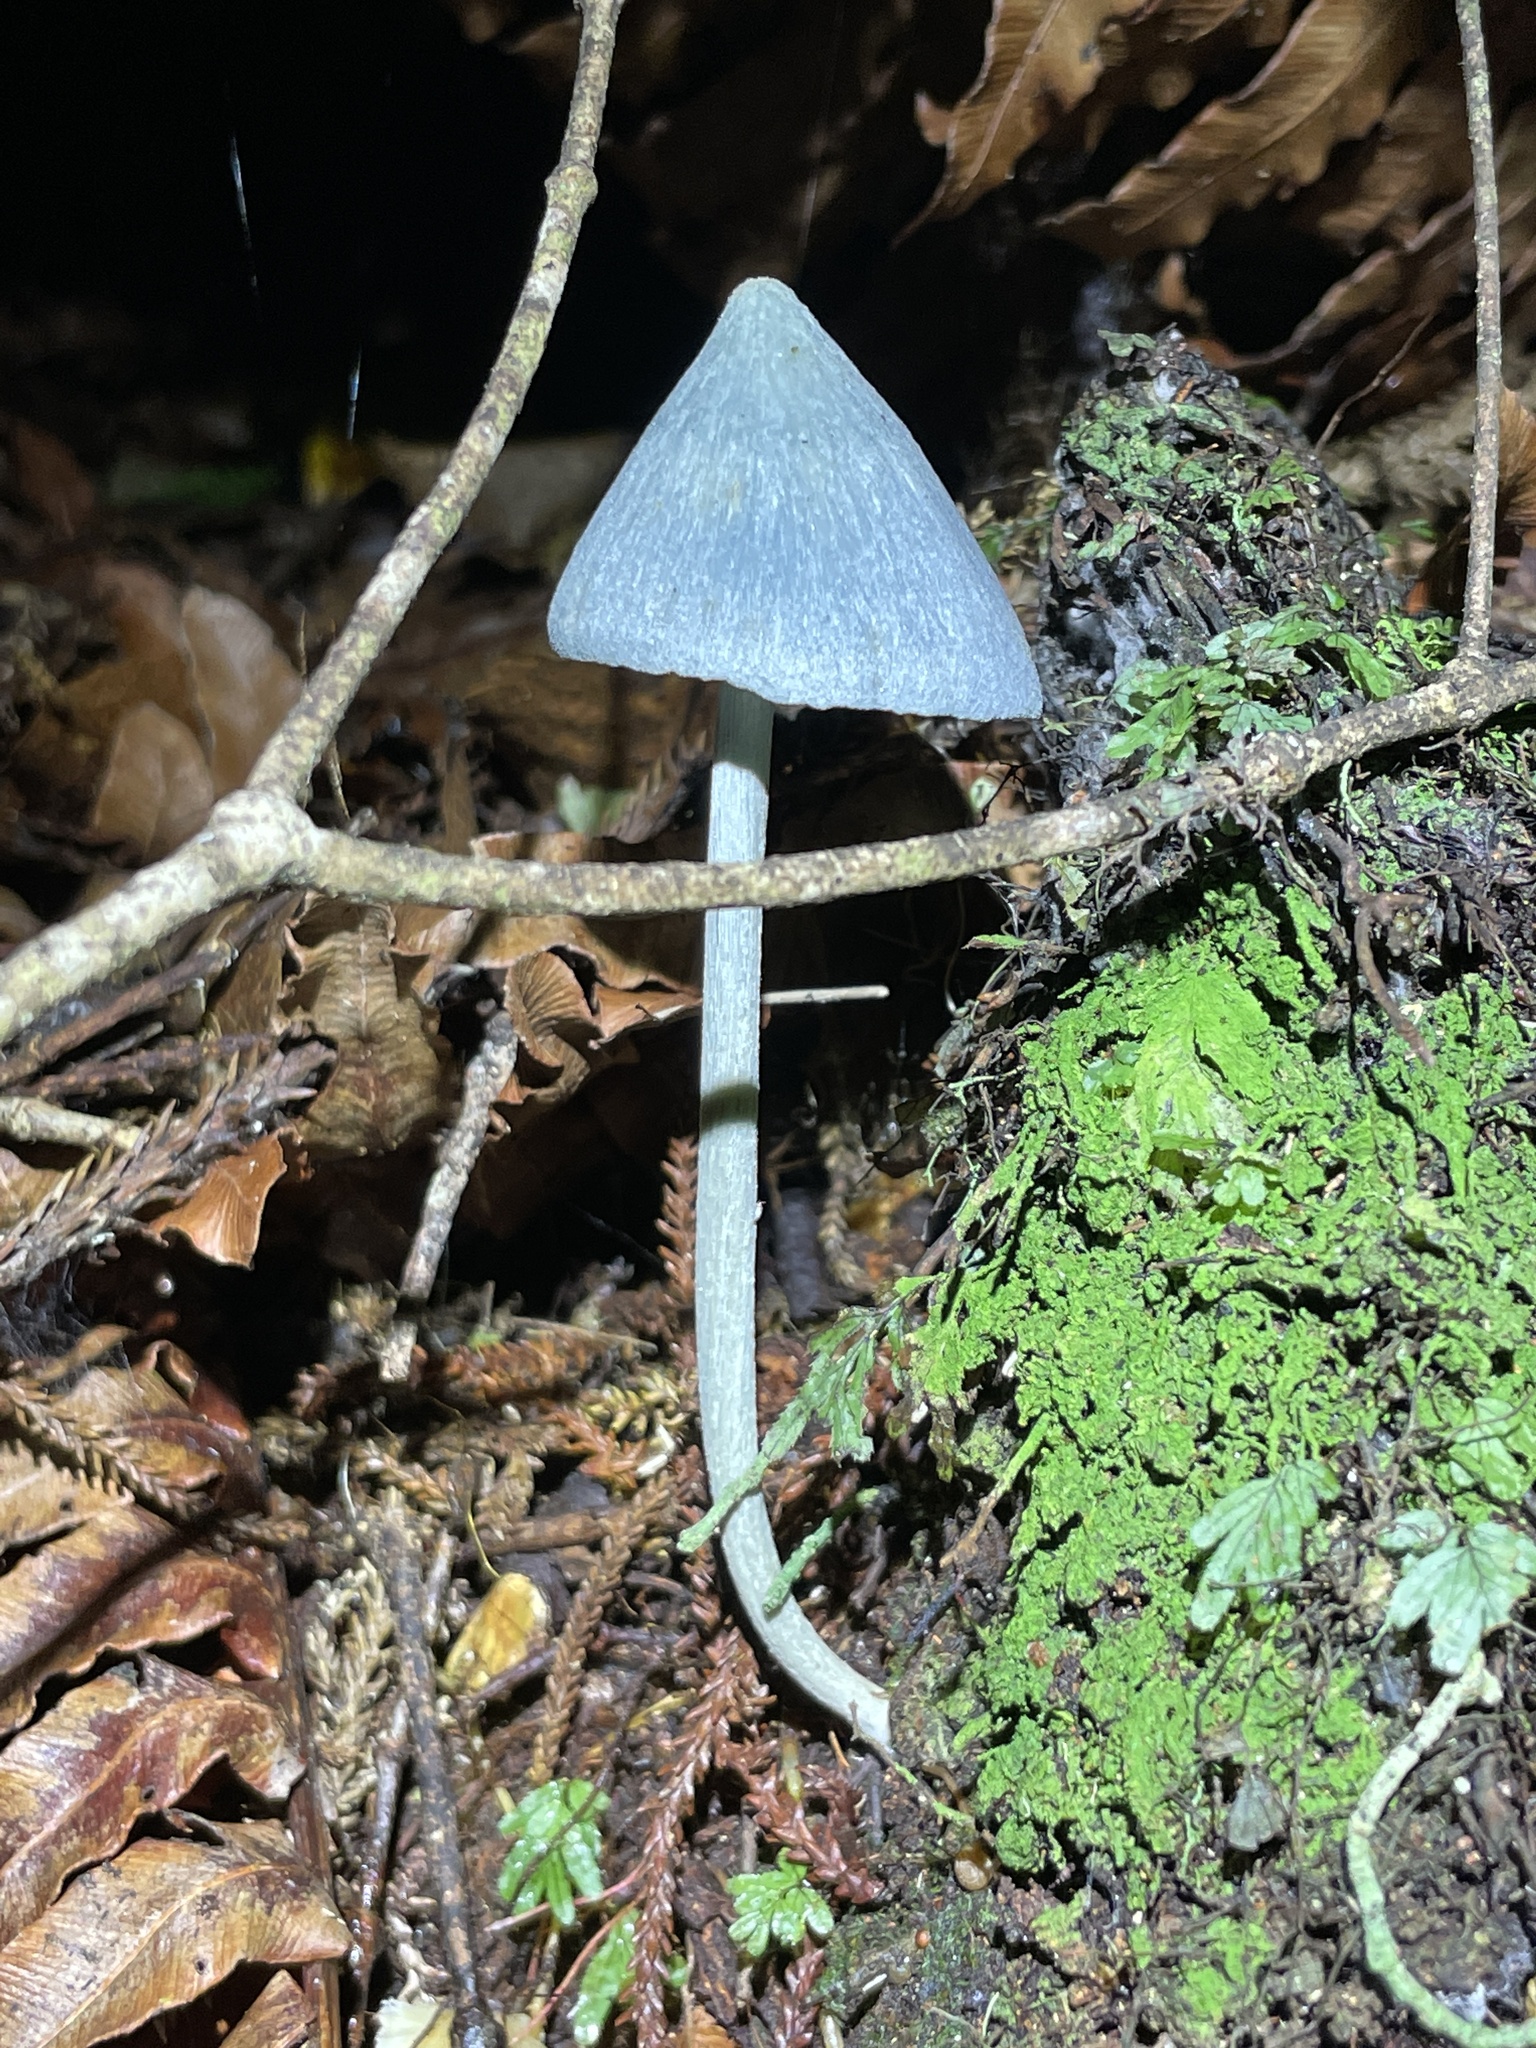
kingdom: Fungi
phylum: Basidiomycota
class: Agaricomycetes
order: Agaricales
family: Entolomataceae
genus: Entoloma
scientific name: Entoloma hochstetteri
